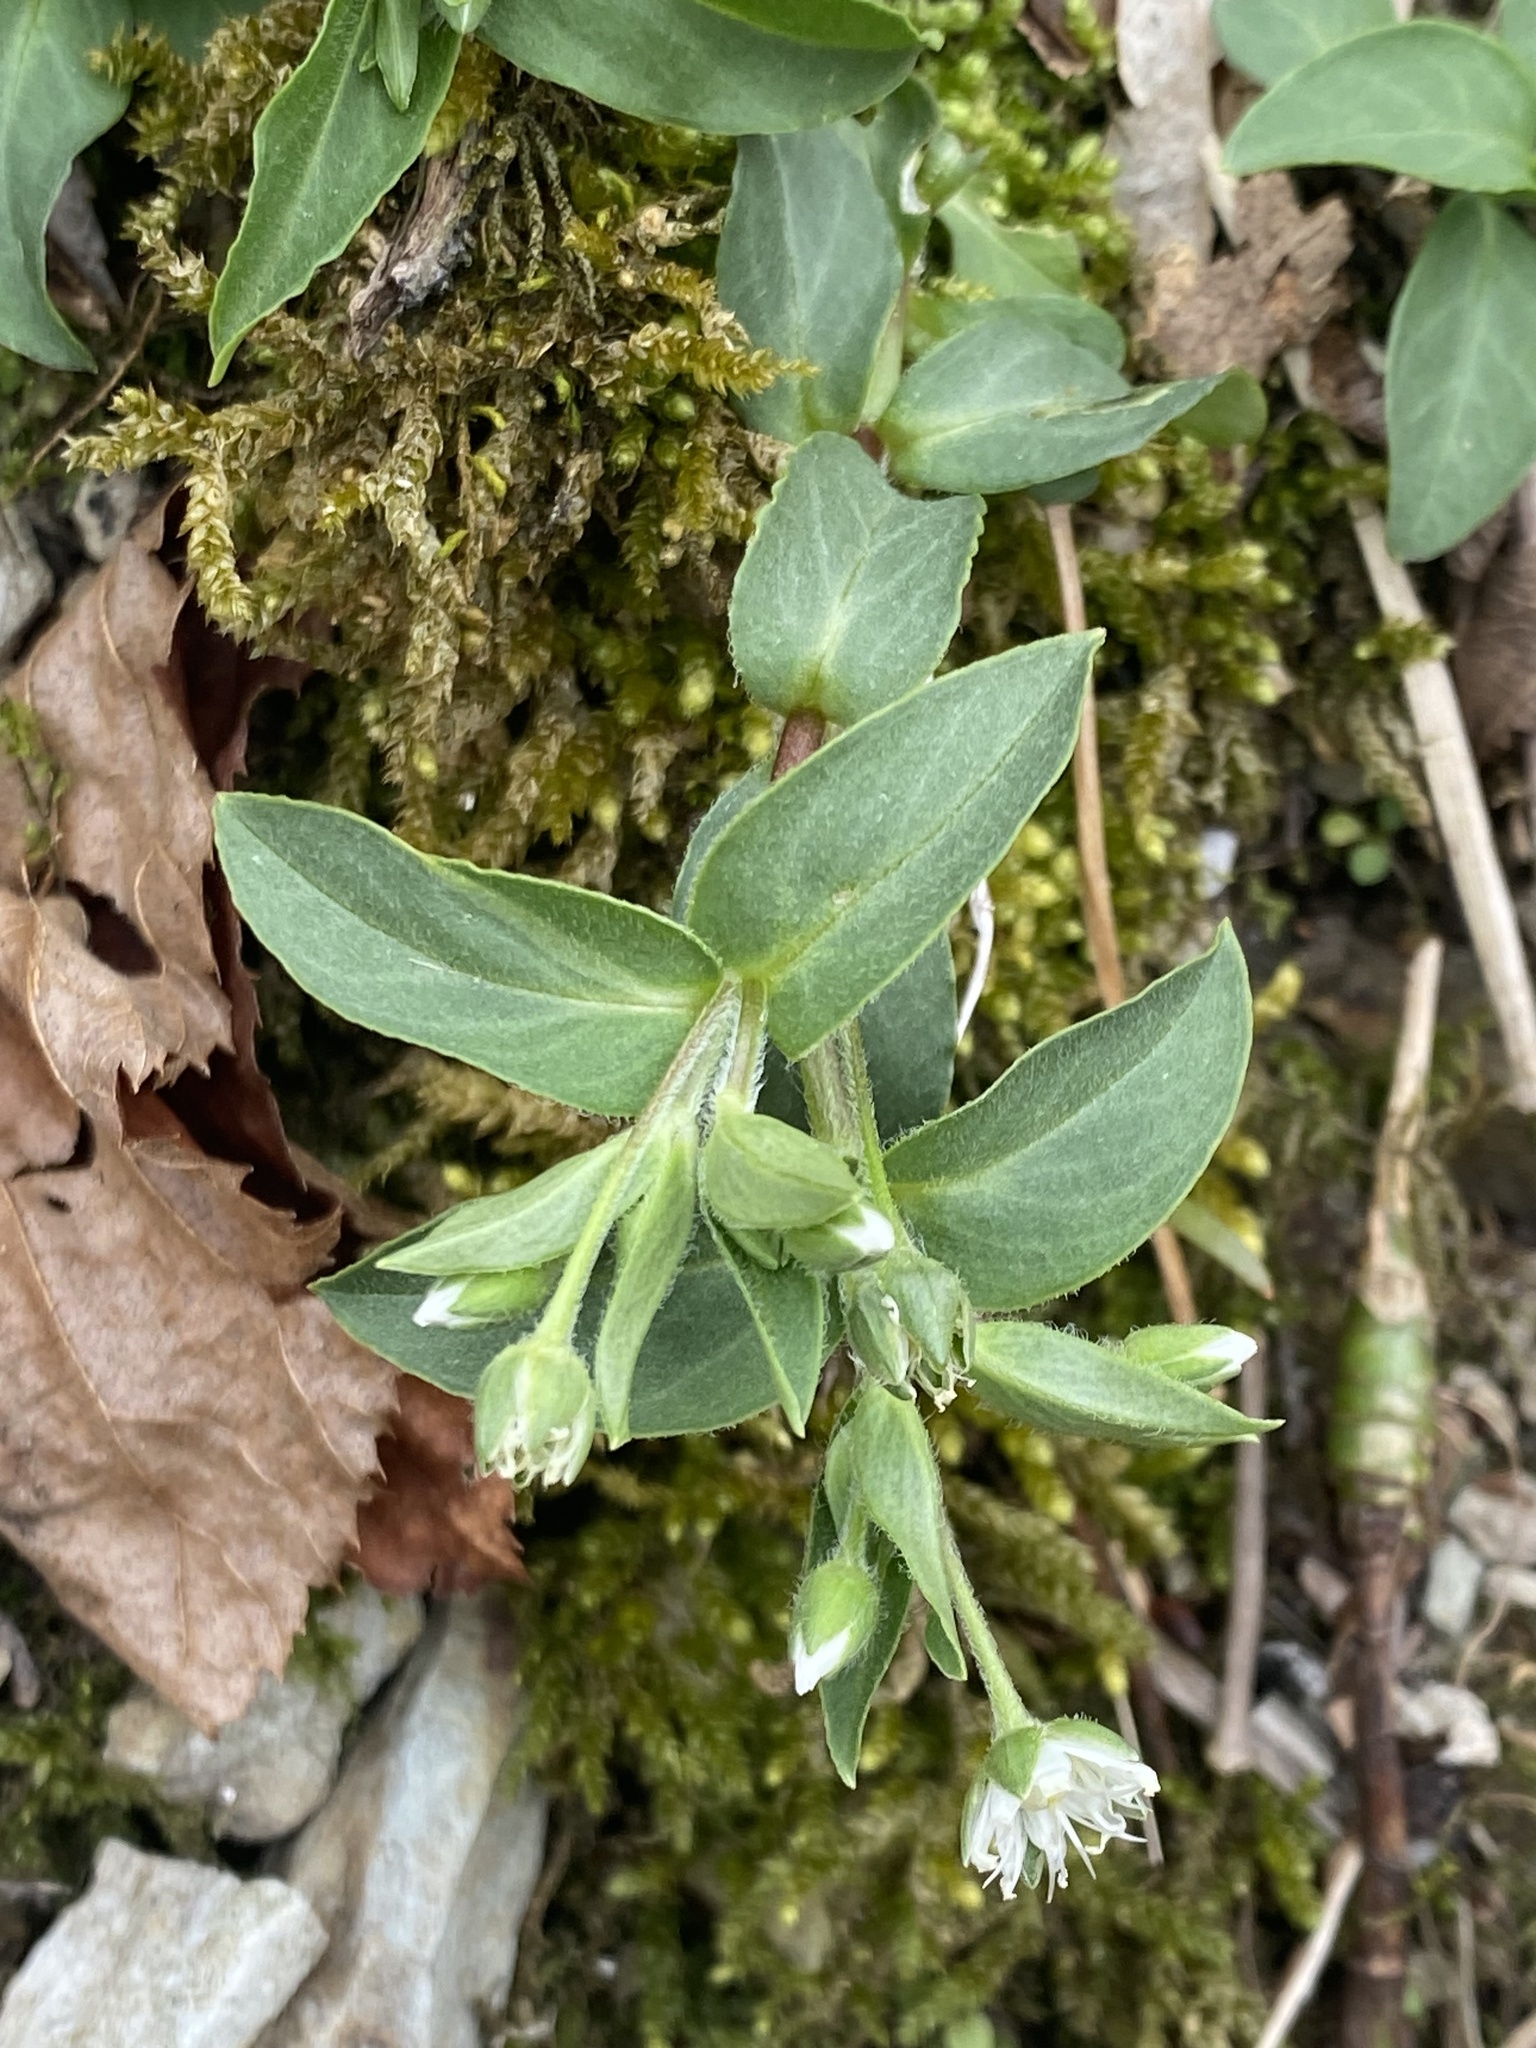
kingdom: Plantae
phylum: Tracheophyta
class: Magnoliopsida
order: Caryophyllales
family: Caryophyllaceae
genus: Stellaria
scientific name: Stellaria pubera
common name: Star chickweed
